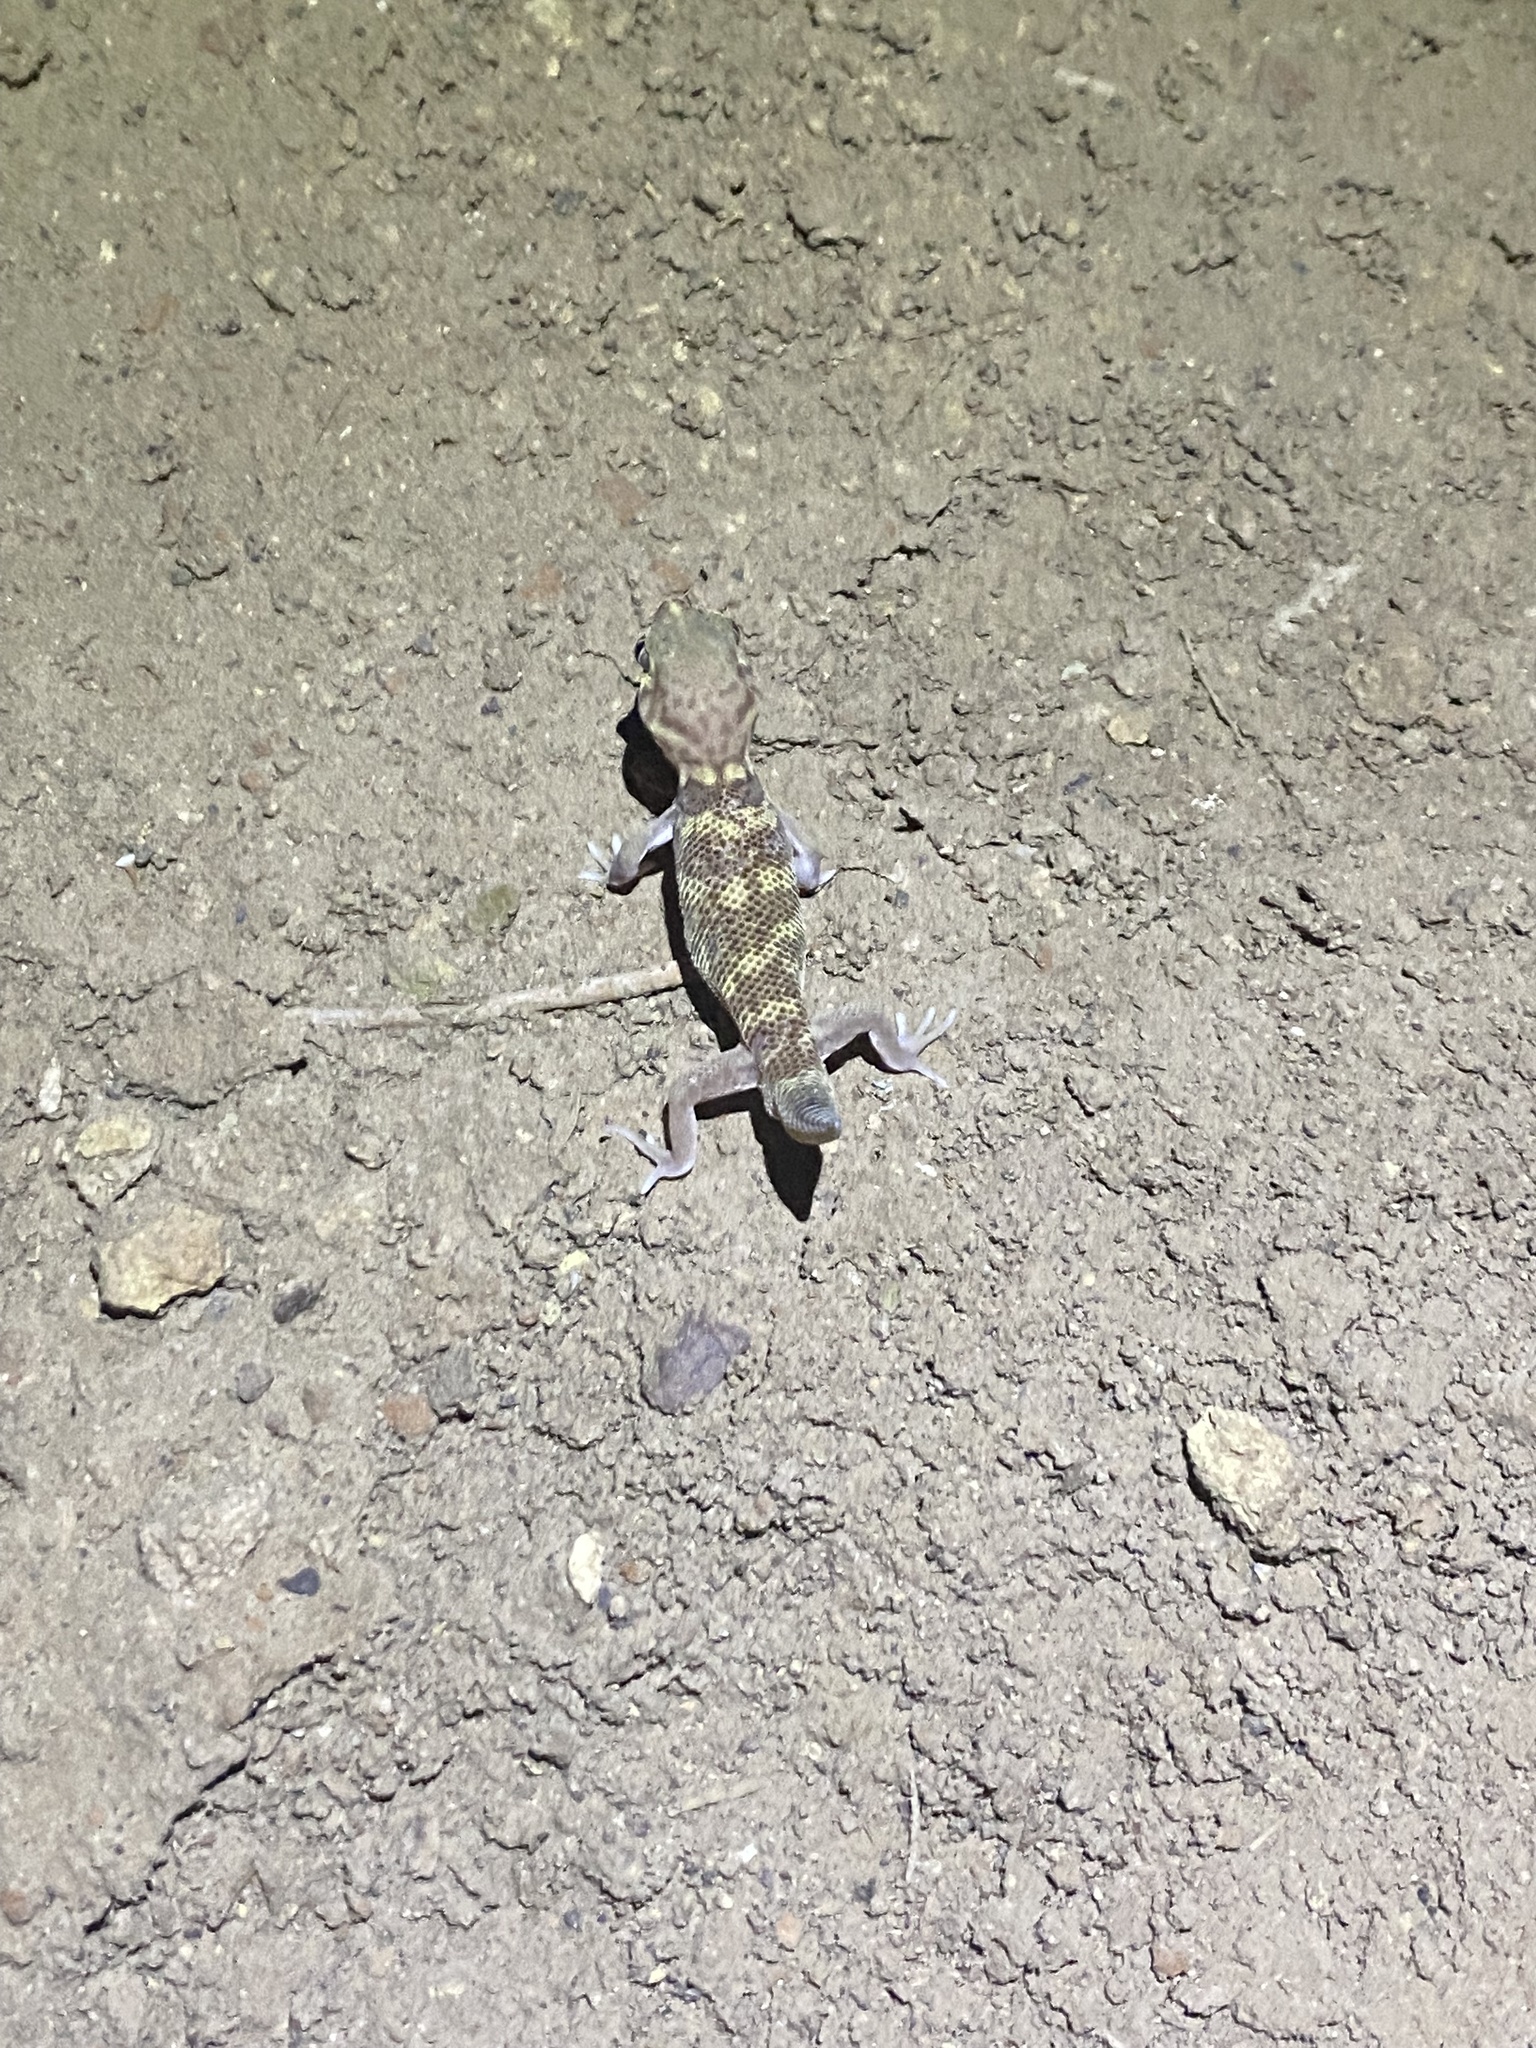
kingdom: Animalia
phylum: Chordata
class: Squamata
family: Sphaerodactylidae
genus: Teratoscincus
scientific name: Teratoscincus bedriagai
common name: Bedriaga's plate-tailed gecko
